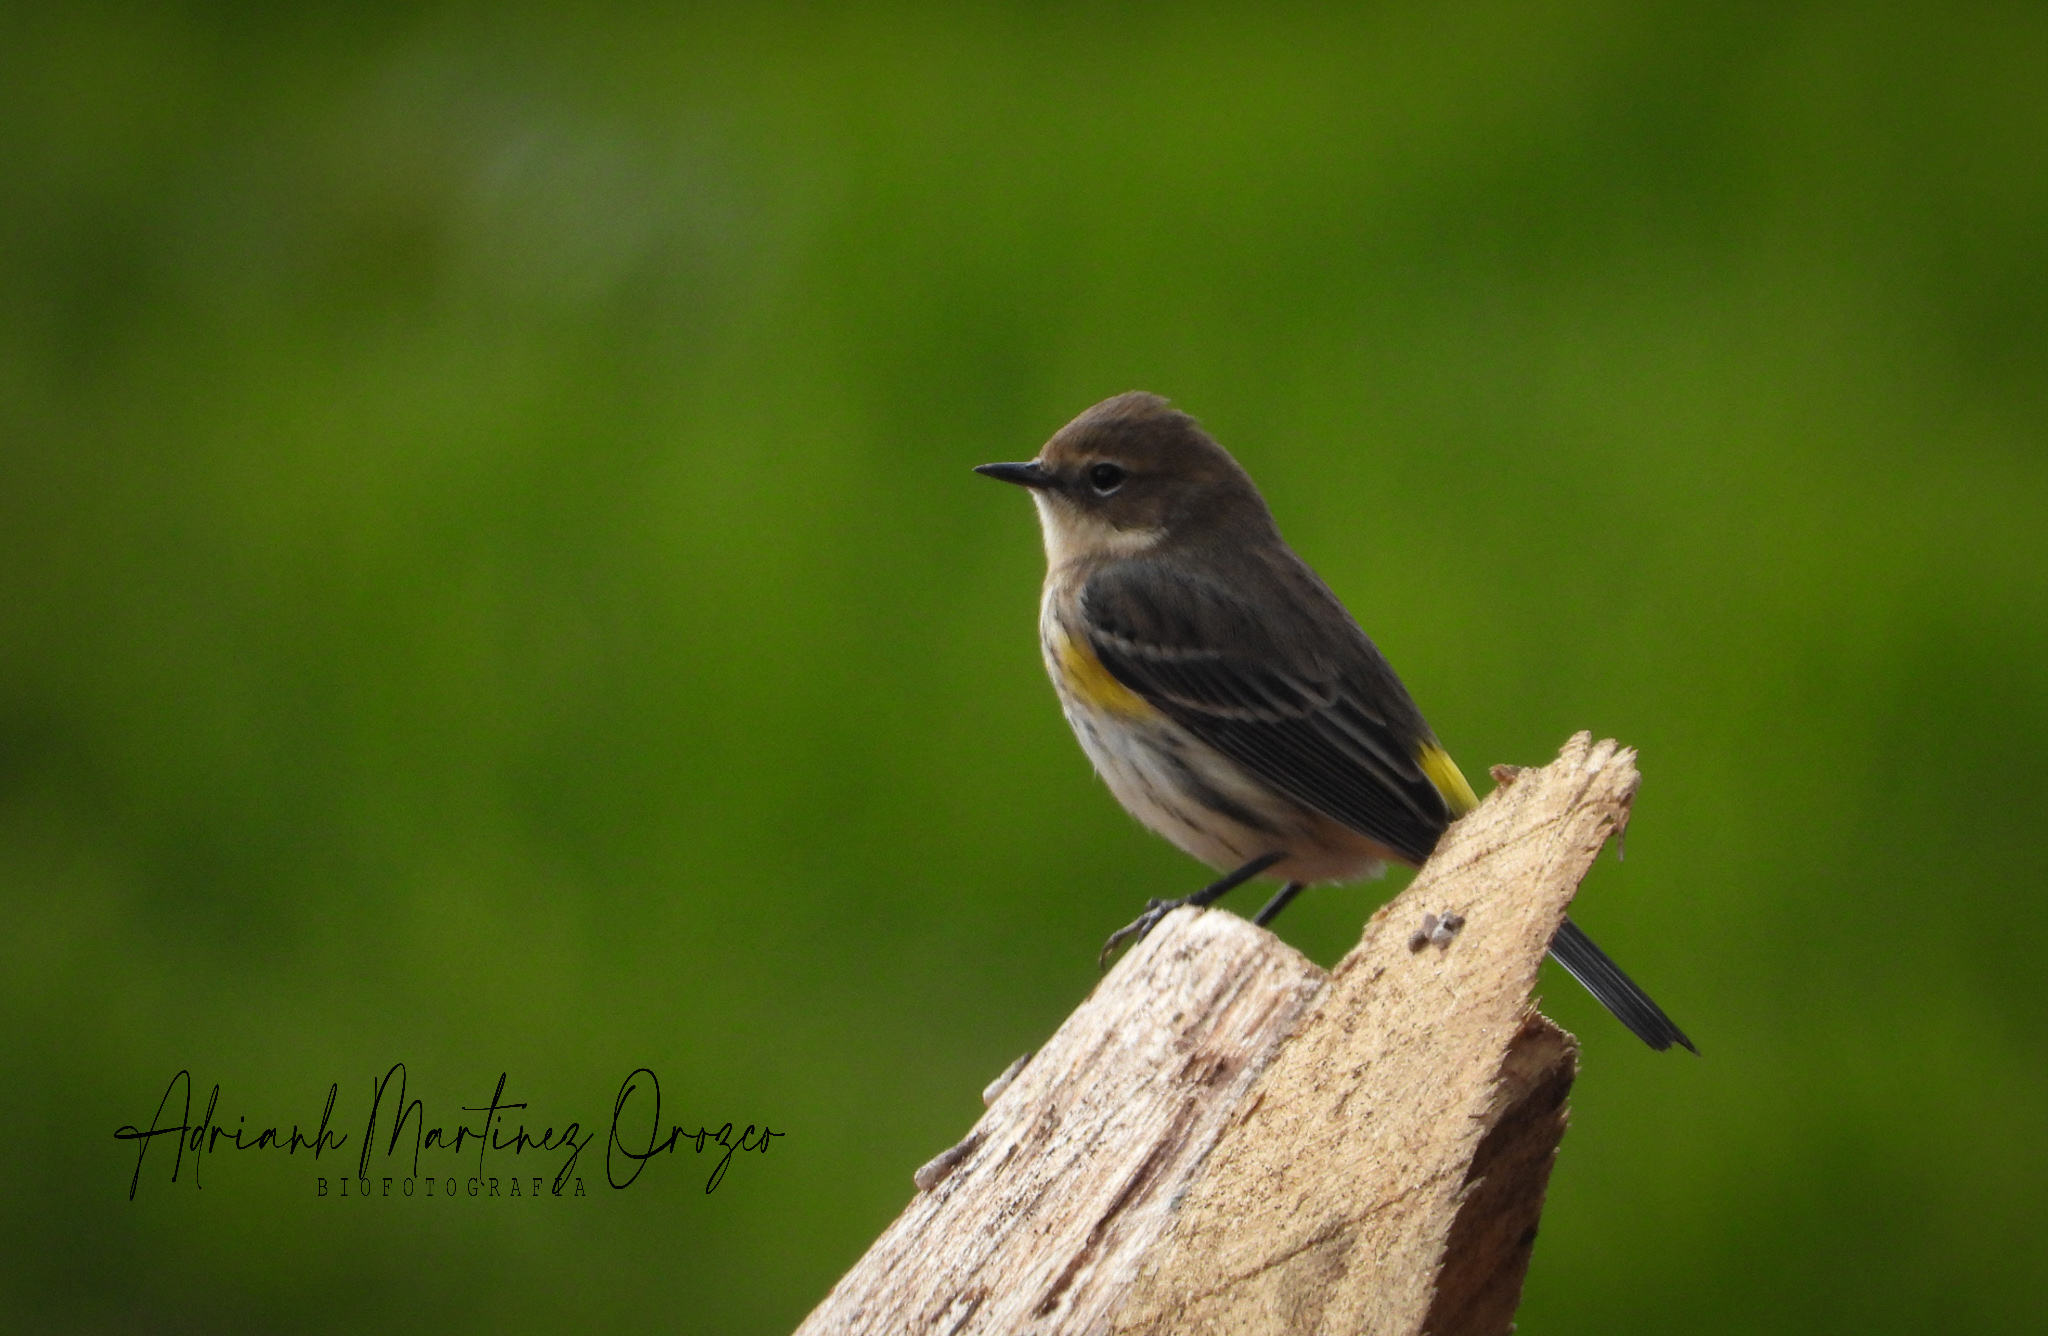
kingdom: Animalia
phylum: Chordata
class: Aves
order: Passeriformes
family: Parulidae
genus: Setophaga
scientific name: Setophaga coronata
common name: Myrtle warbler
